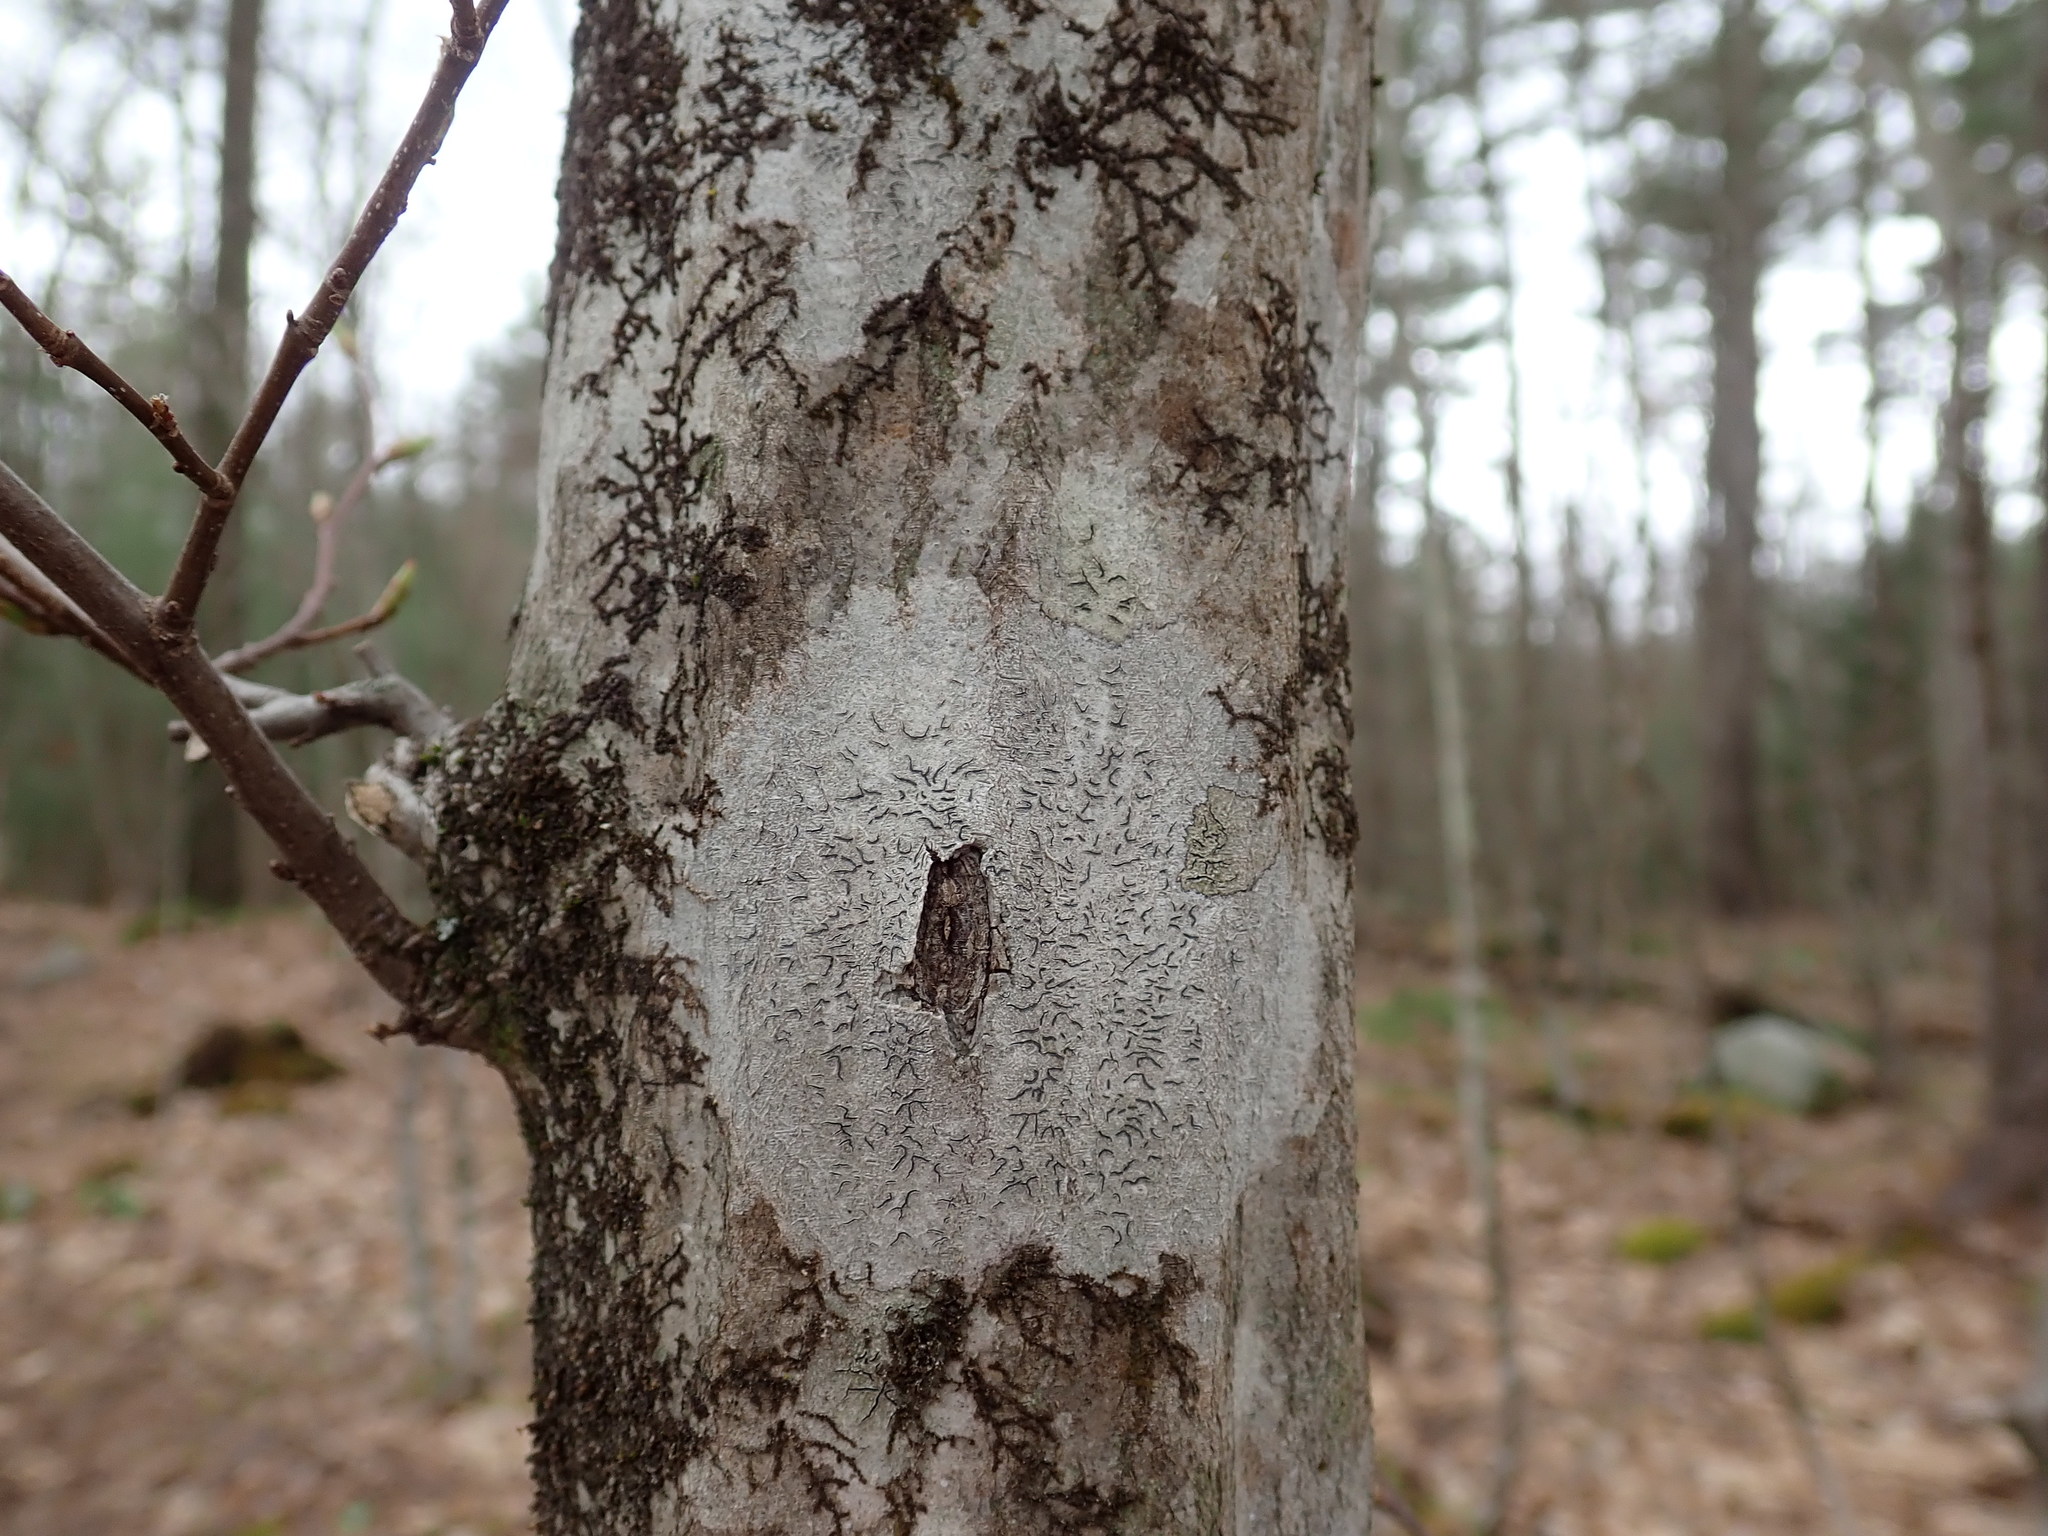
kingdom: Fungi
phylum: Ascomycota
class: Lecanoromycetes
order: Ostropales
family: Graphidaceae
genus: Graphis
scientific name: Graphis scripta
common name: Script lichen
